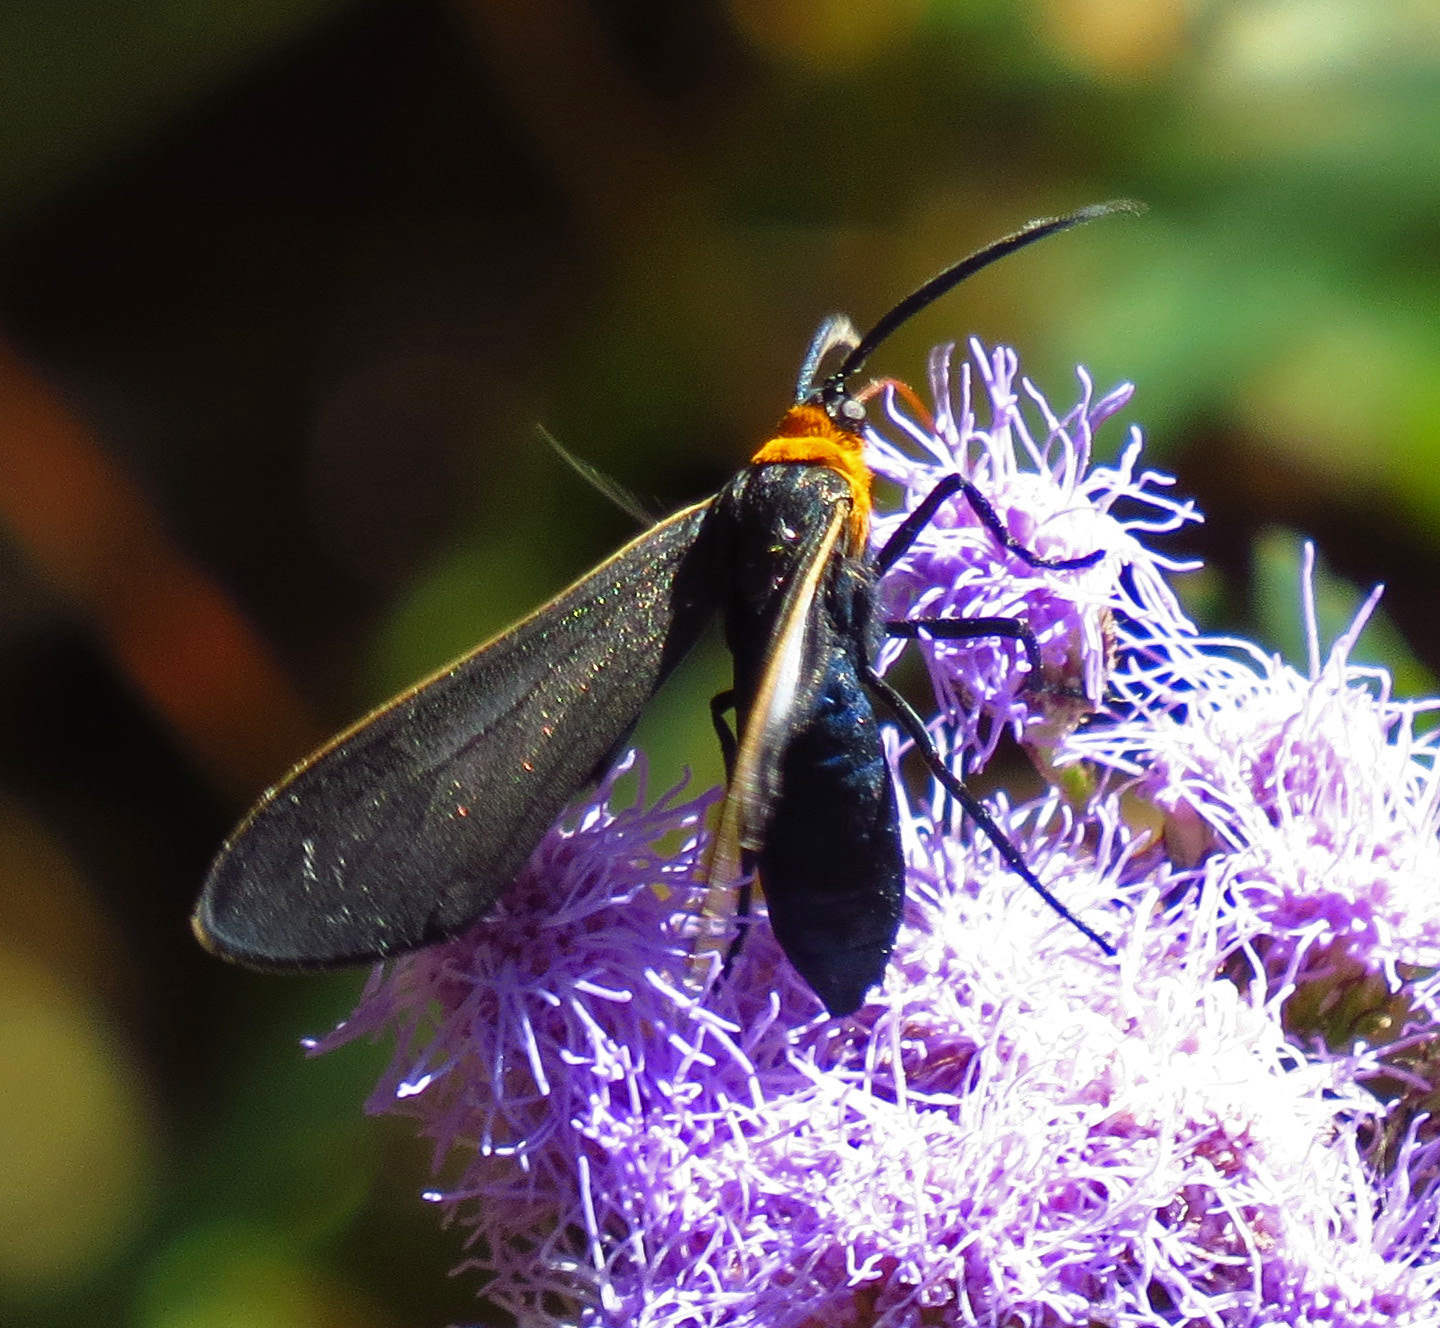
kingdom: Animalia
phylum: Arthropoda
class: Insecta
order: Lepidoptera
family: Erebidae
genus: Cisseps
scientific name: Cisseps fulvicollis
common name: Yellow-collared scape moth
